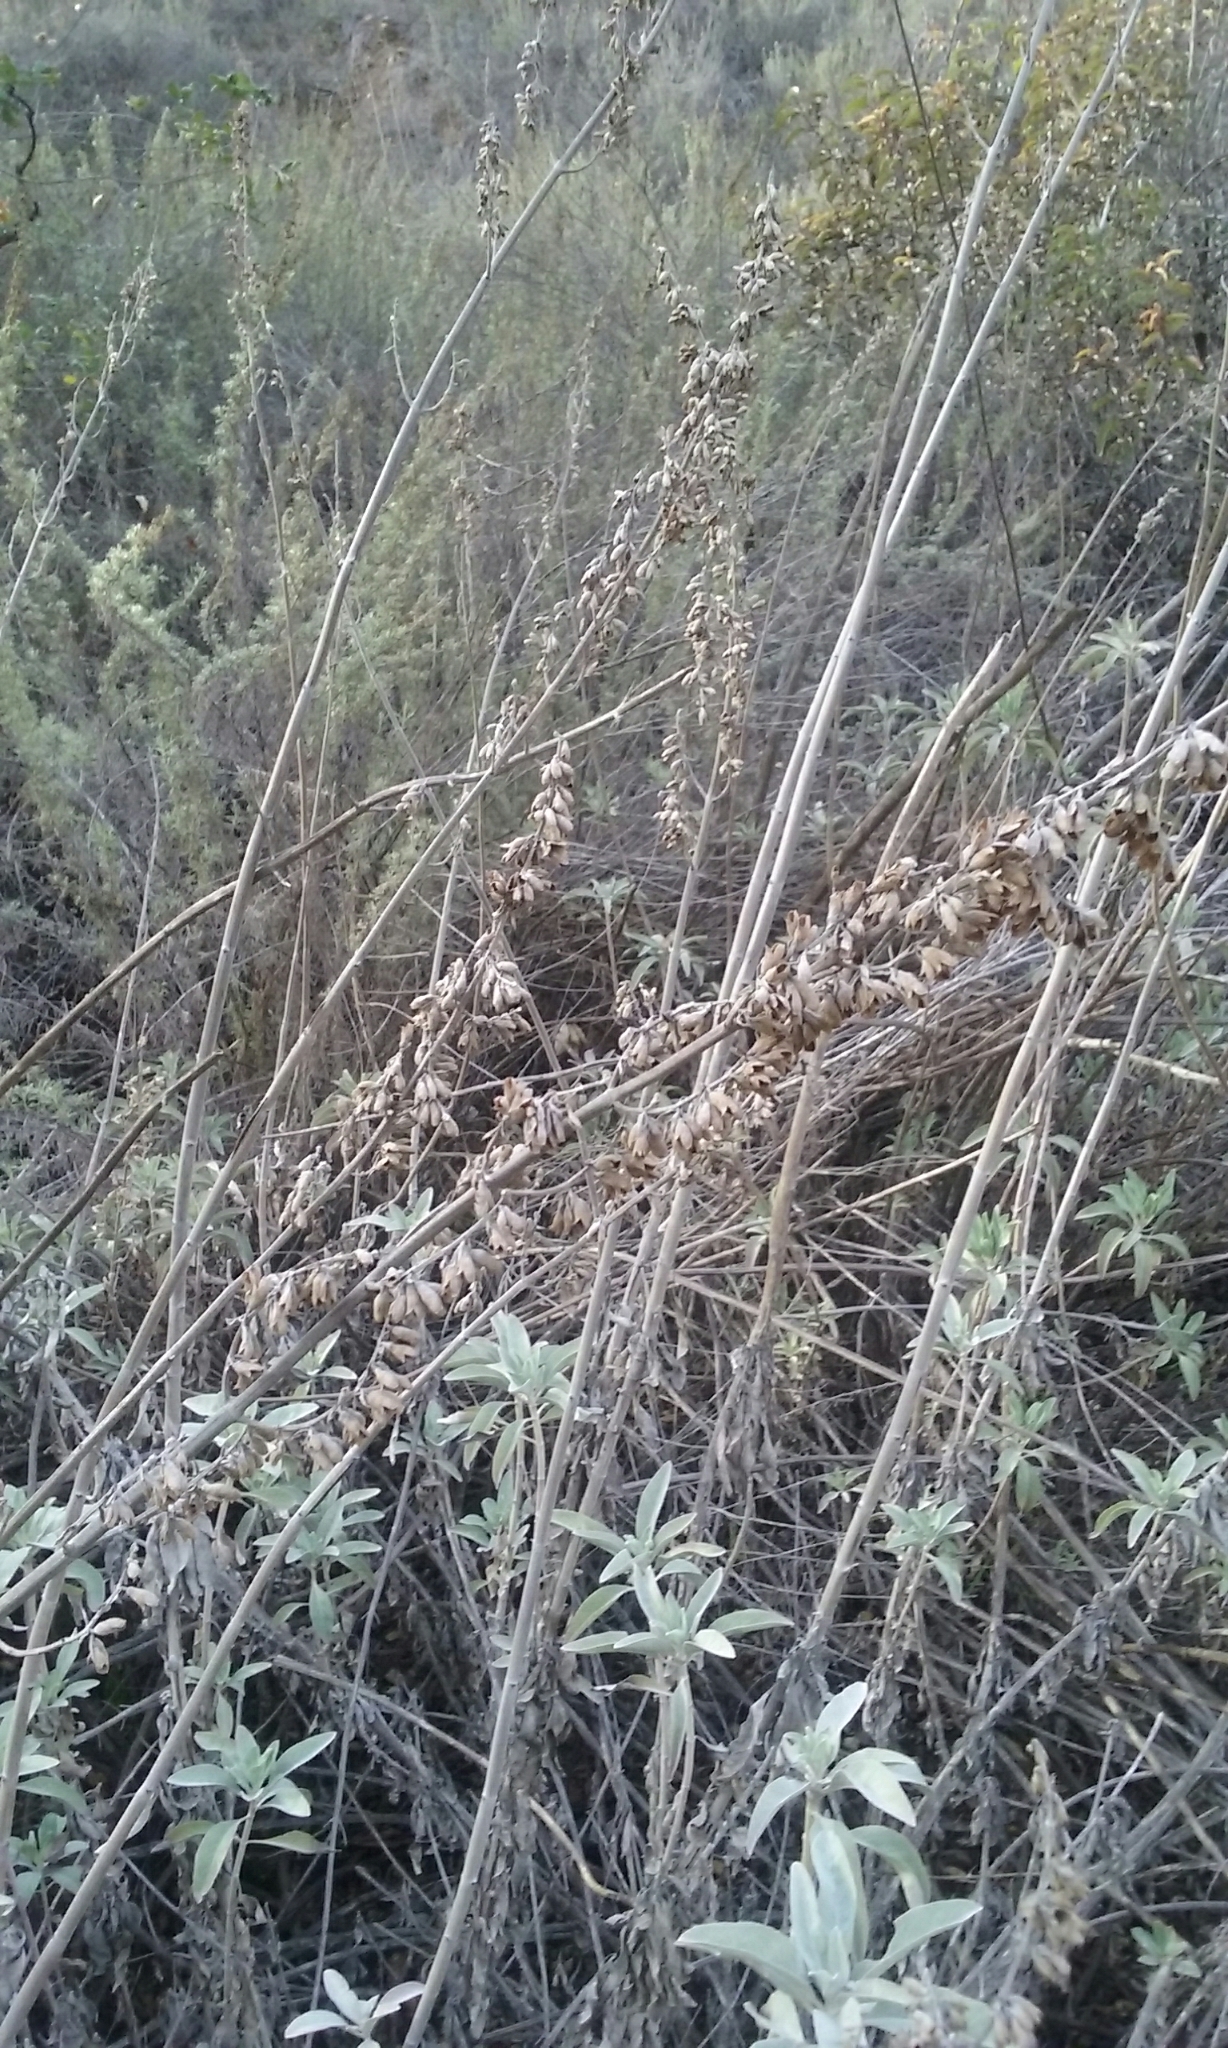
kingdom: Plantae
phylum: Tracheophyta
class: Magnoliopsida
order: Lamiales
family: Lamiaceae
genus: Salvia
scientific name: Salvia apiana
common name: White sage
